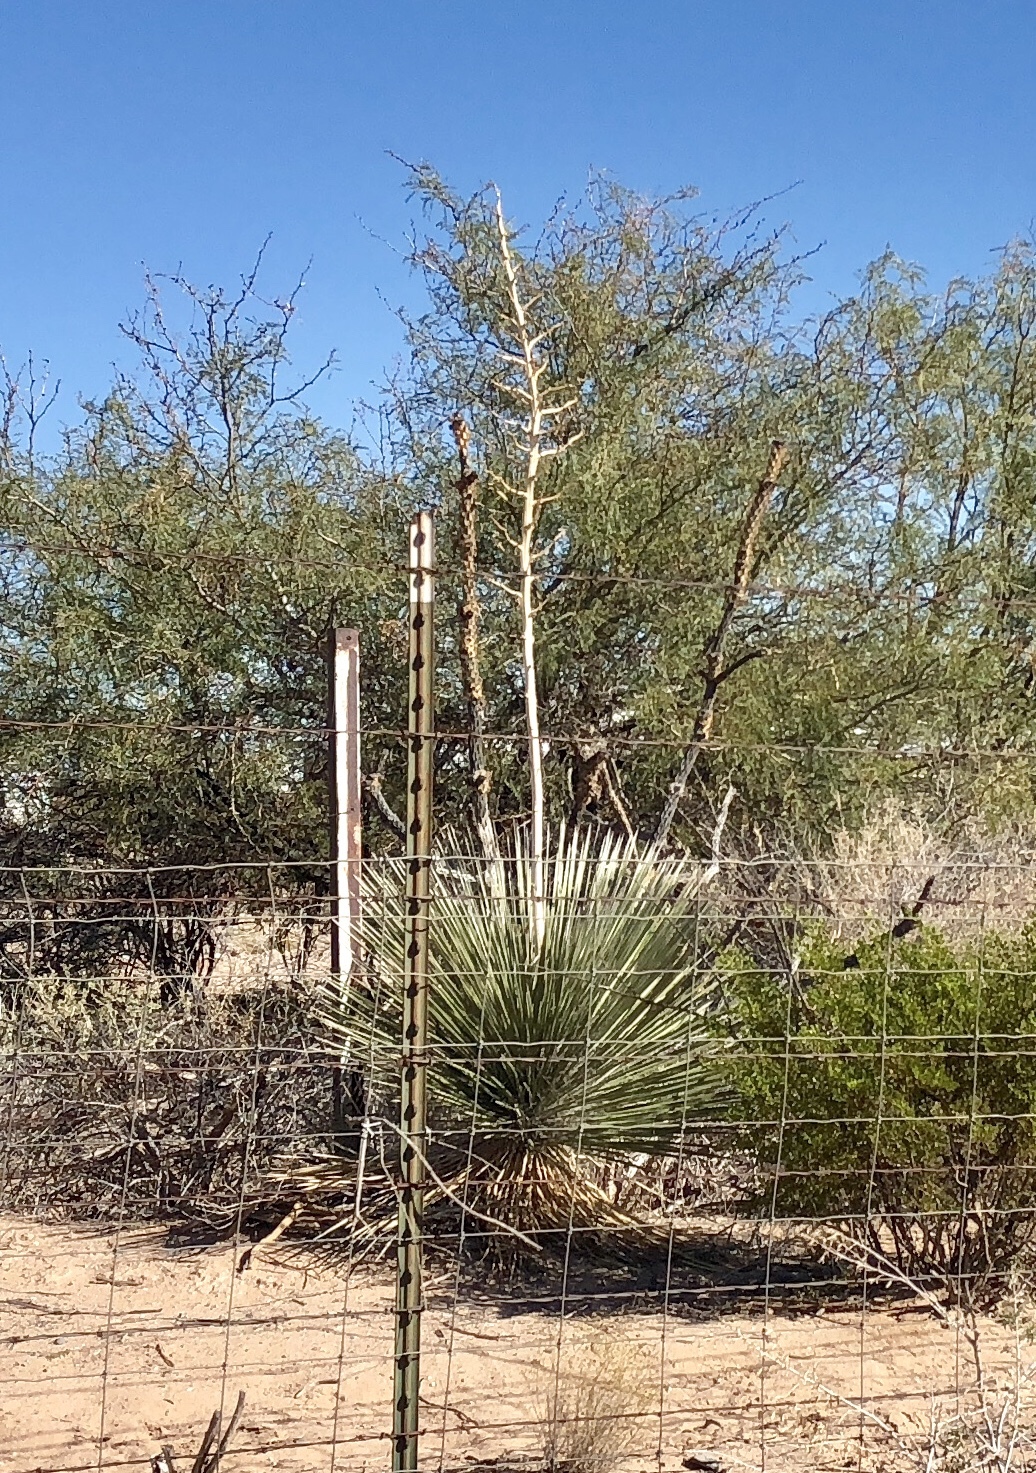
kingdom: Plantae
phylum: Tracheophyta
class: Liliopsida
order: Asparagales
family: Asparagaceae
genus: Yucca
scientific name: Yucca elata
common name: Palmella
